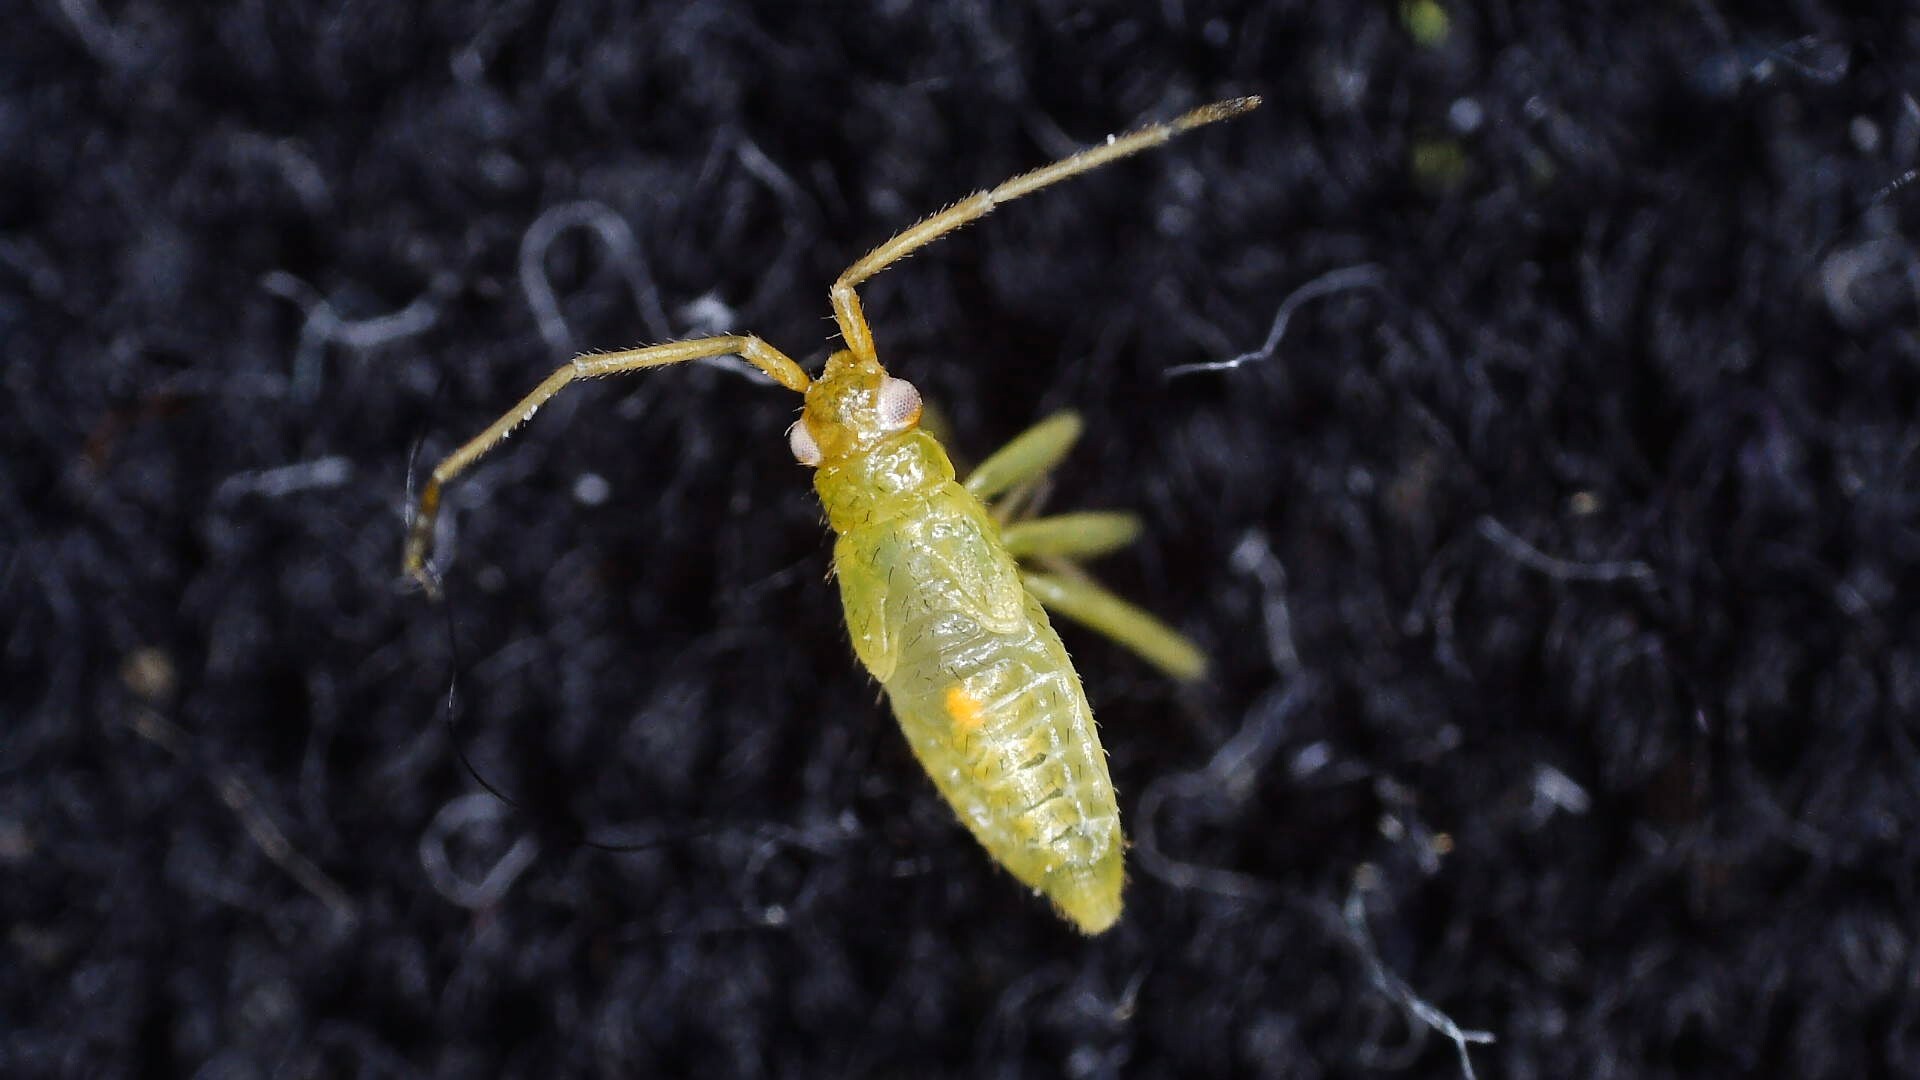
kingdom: Animalia
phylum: Arthropoda
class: Insecta
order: Hemiptera
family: Miridae
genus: Blepharidopterus
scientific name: Blepharidopterus angulatus
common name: Plant bug
